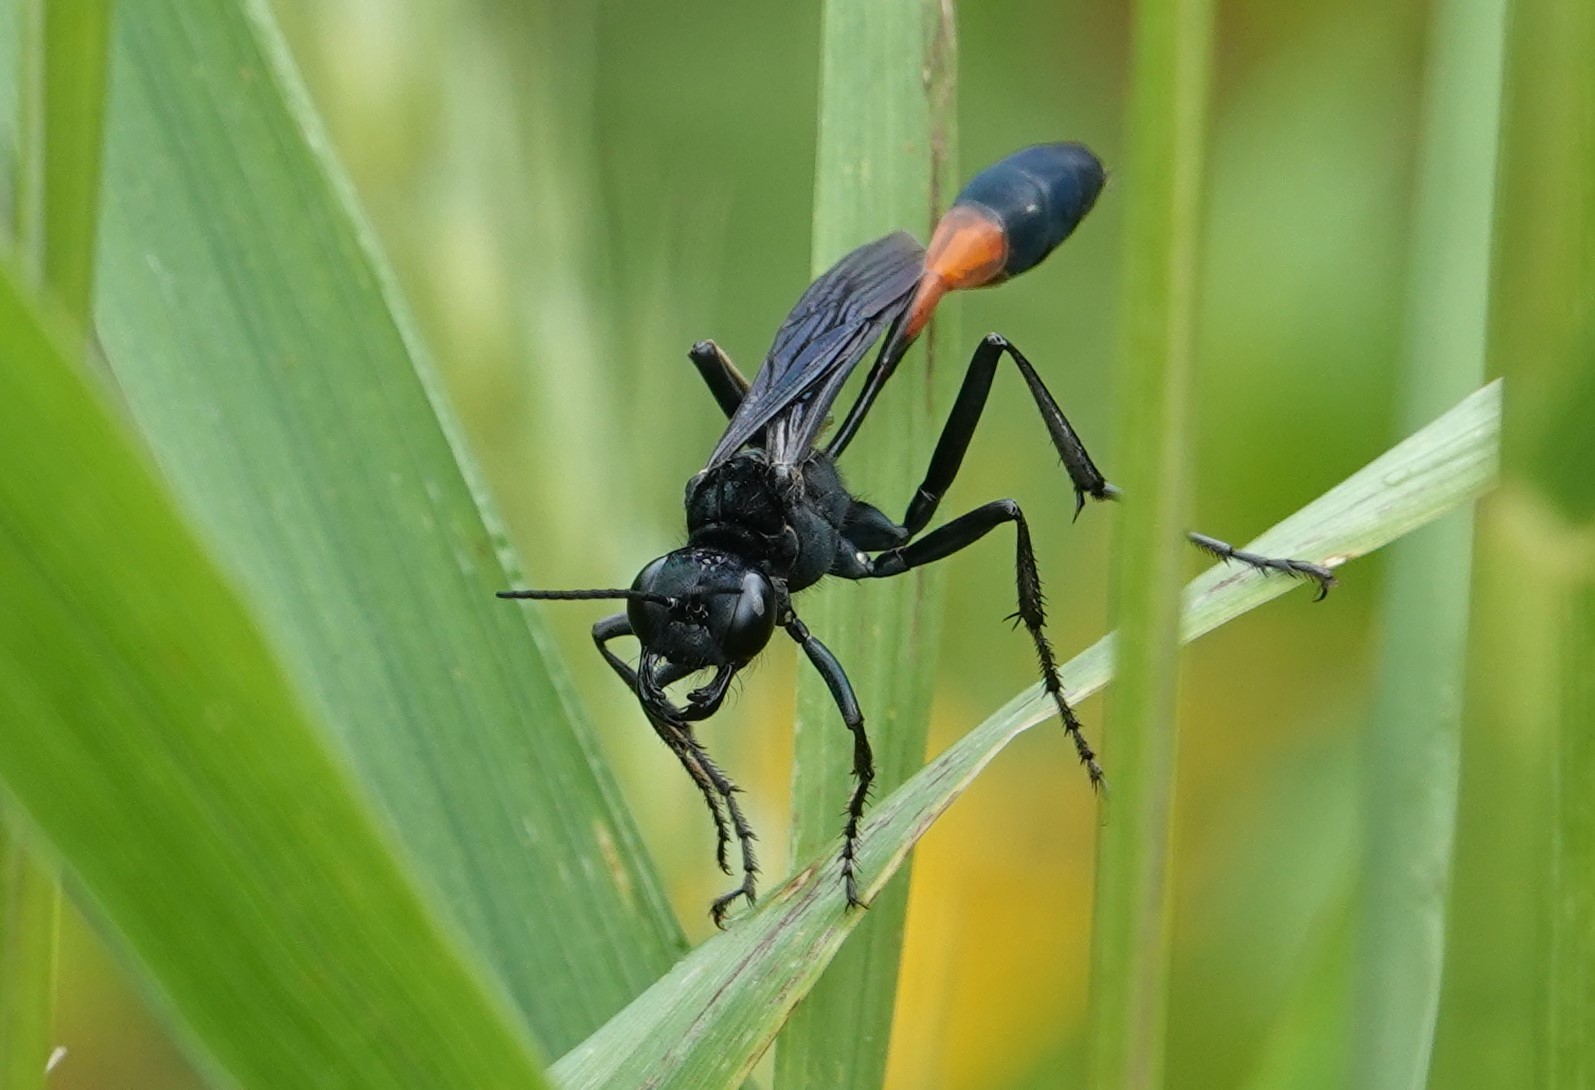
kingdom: Animalia
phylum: Arthropoda
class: Insecta
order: Hymenoptera
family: Sphecidae
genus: Ammophila
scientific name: Ammophila nigricans
